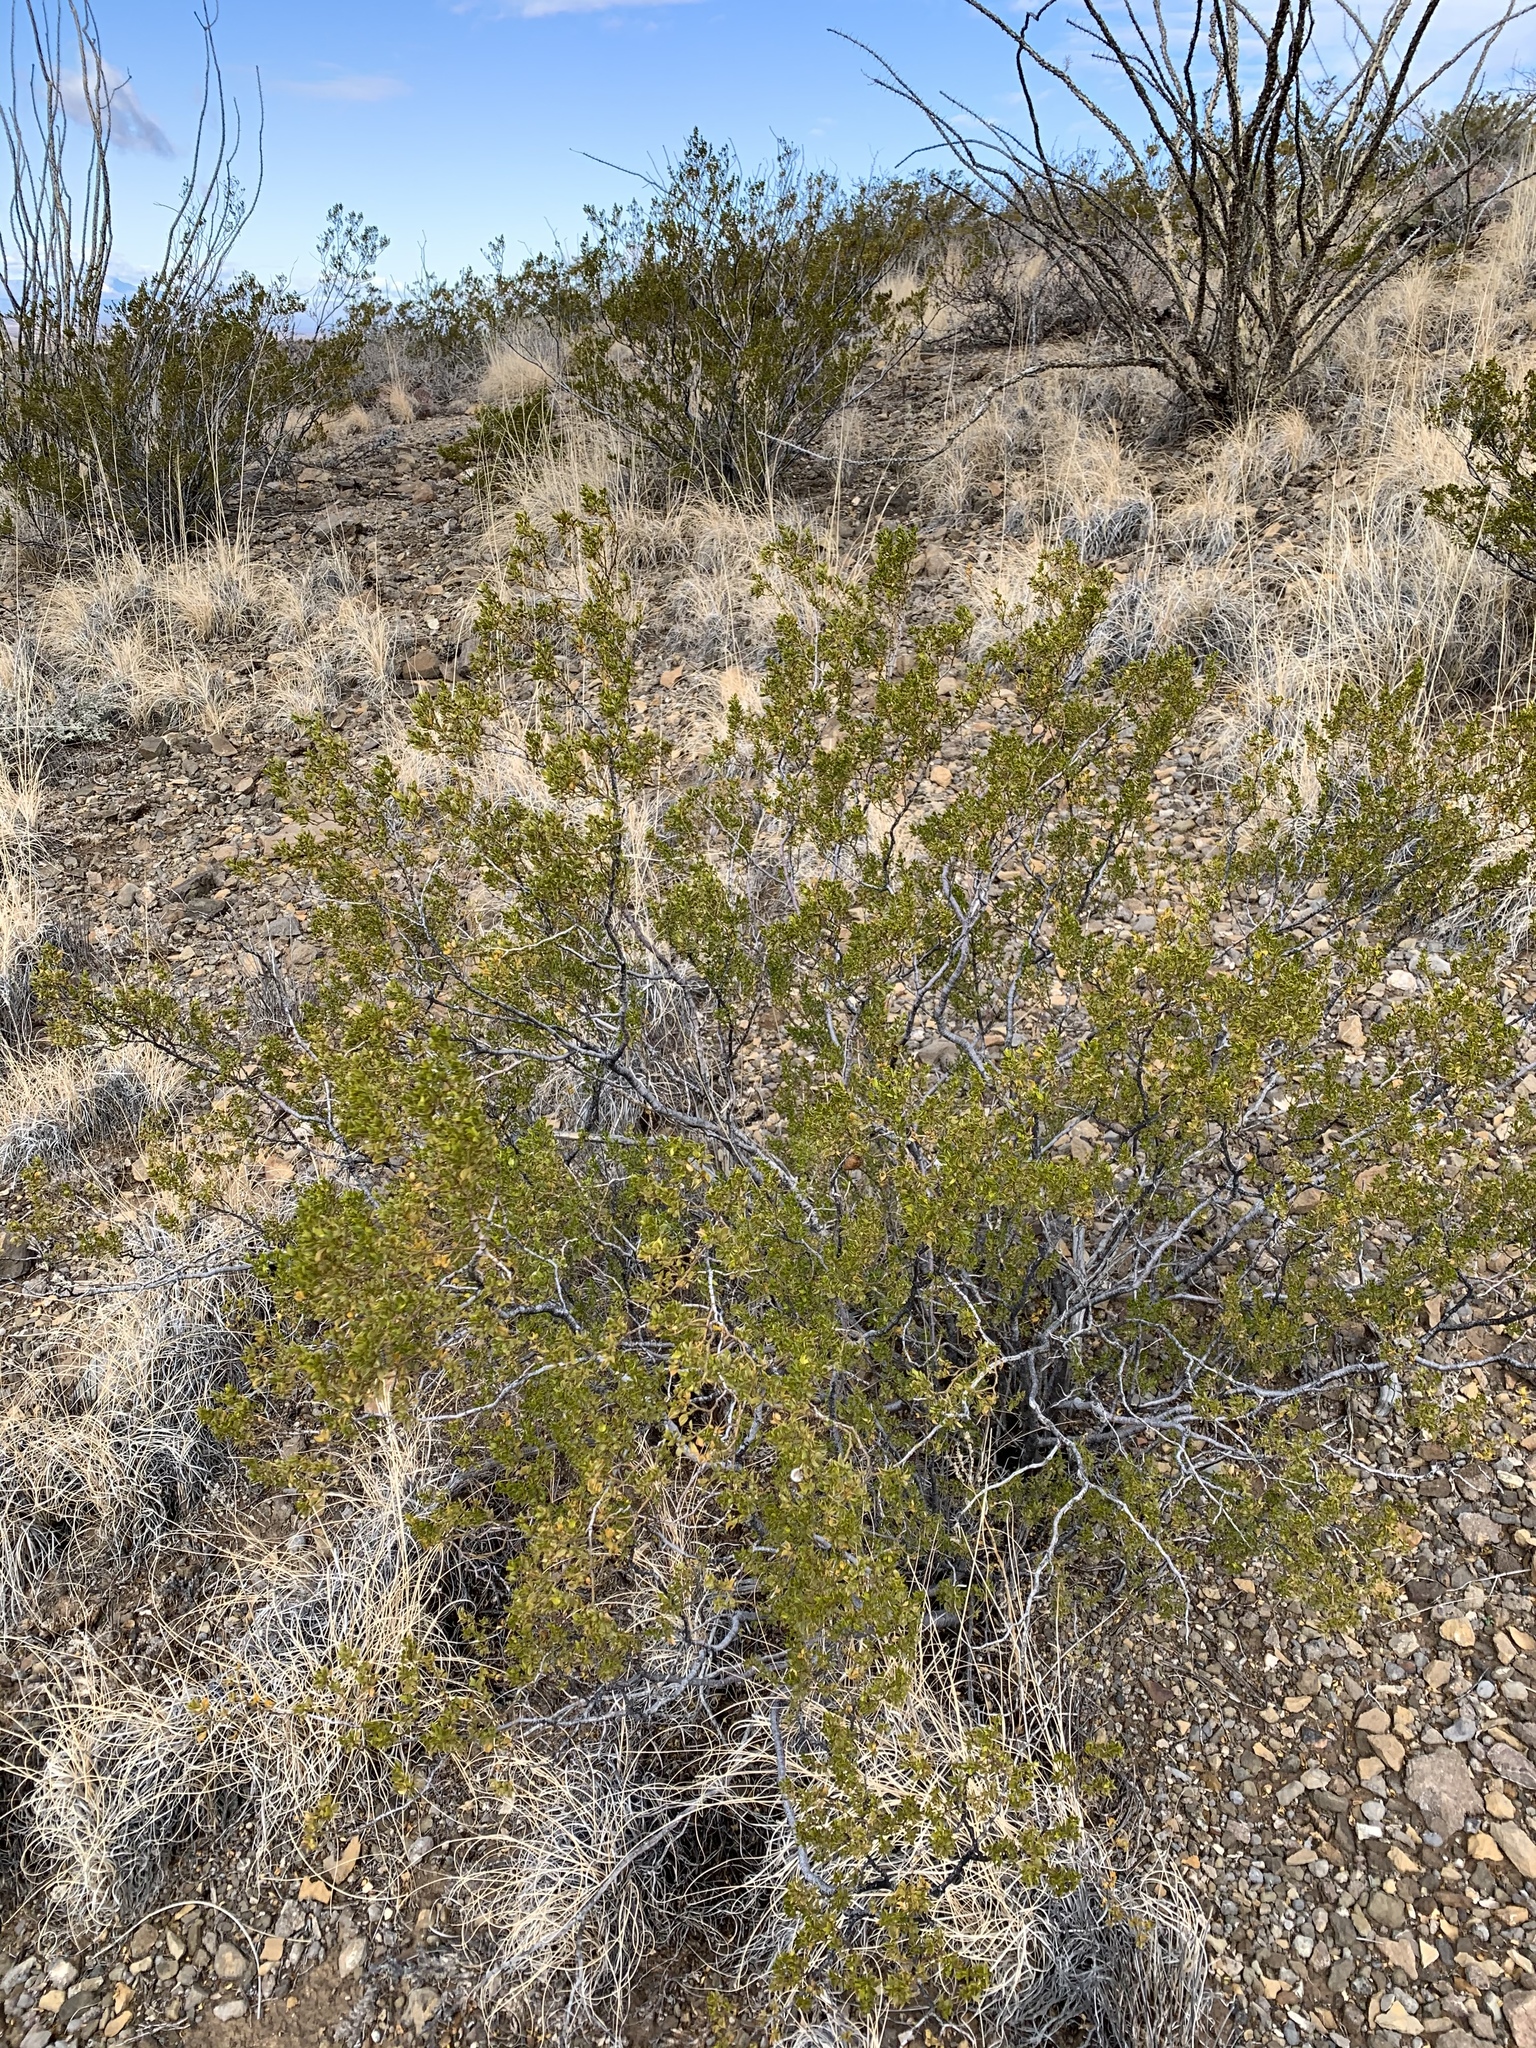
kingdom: Plantae
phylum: Tracheophyta
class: Magnoliopsida
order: Zygophyllales
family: Zygophyllaceae
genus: Larrea
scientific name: Larrea tridentata
